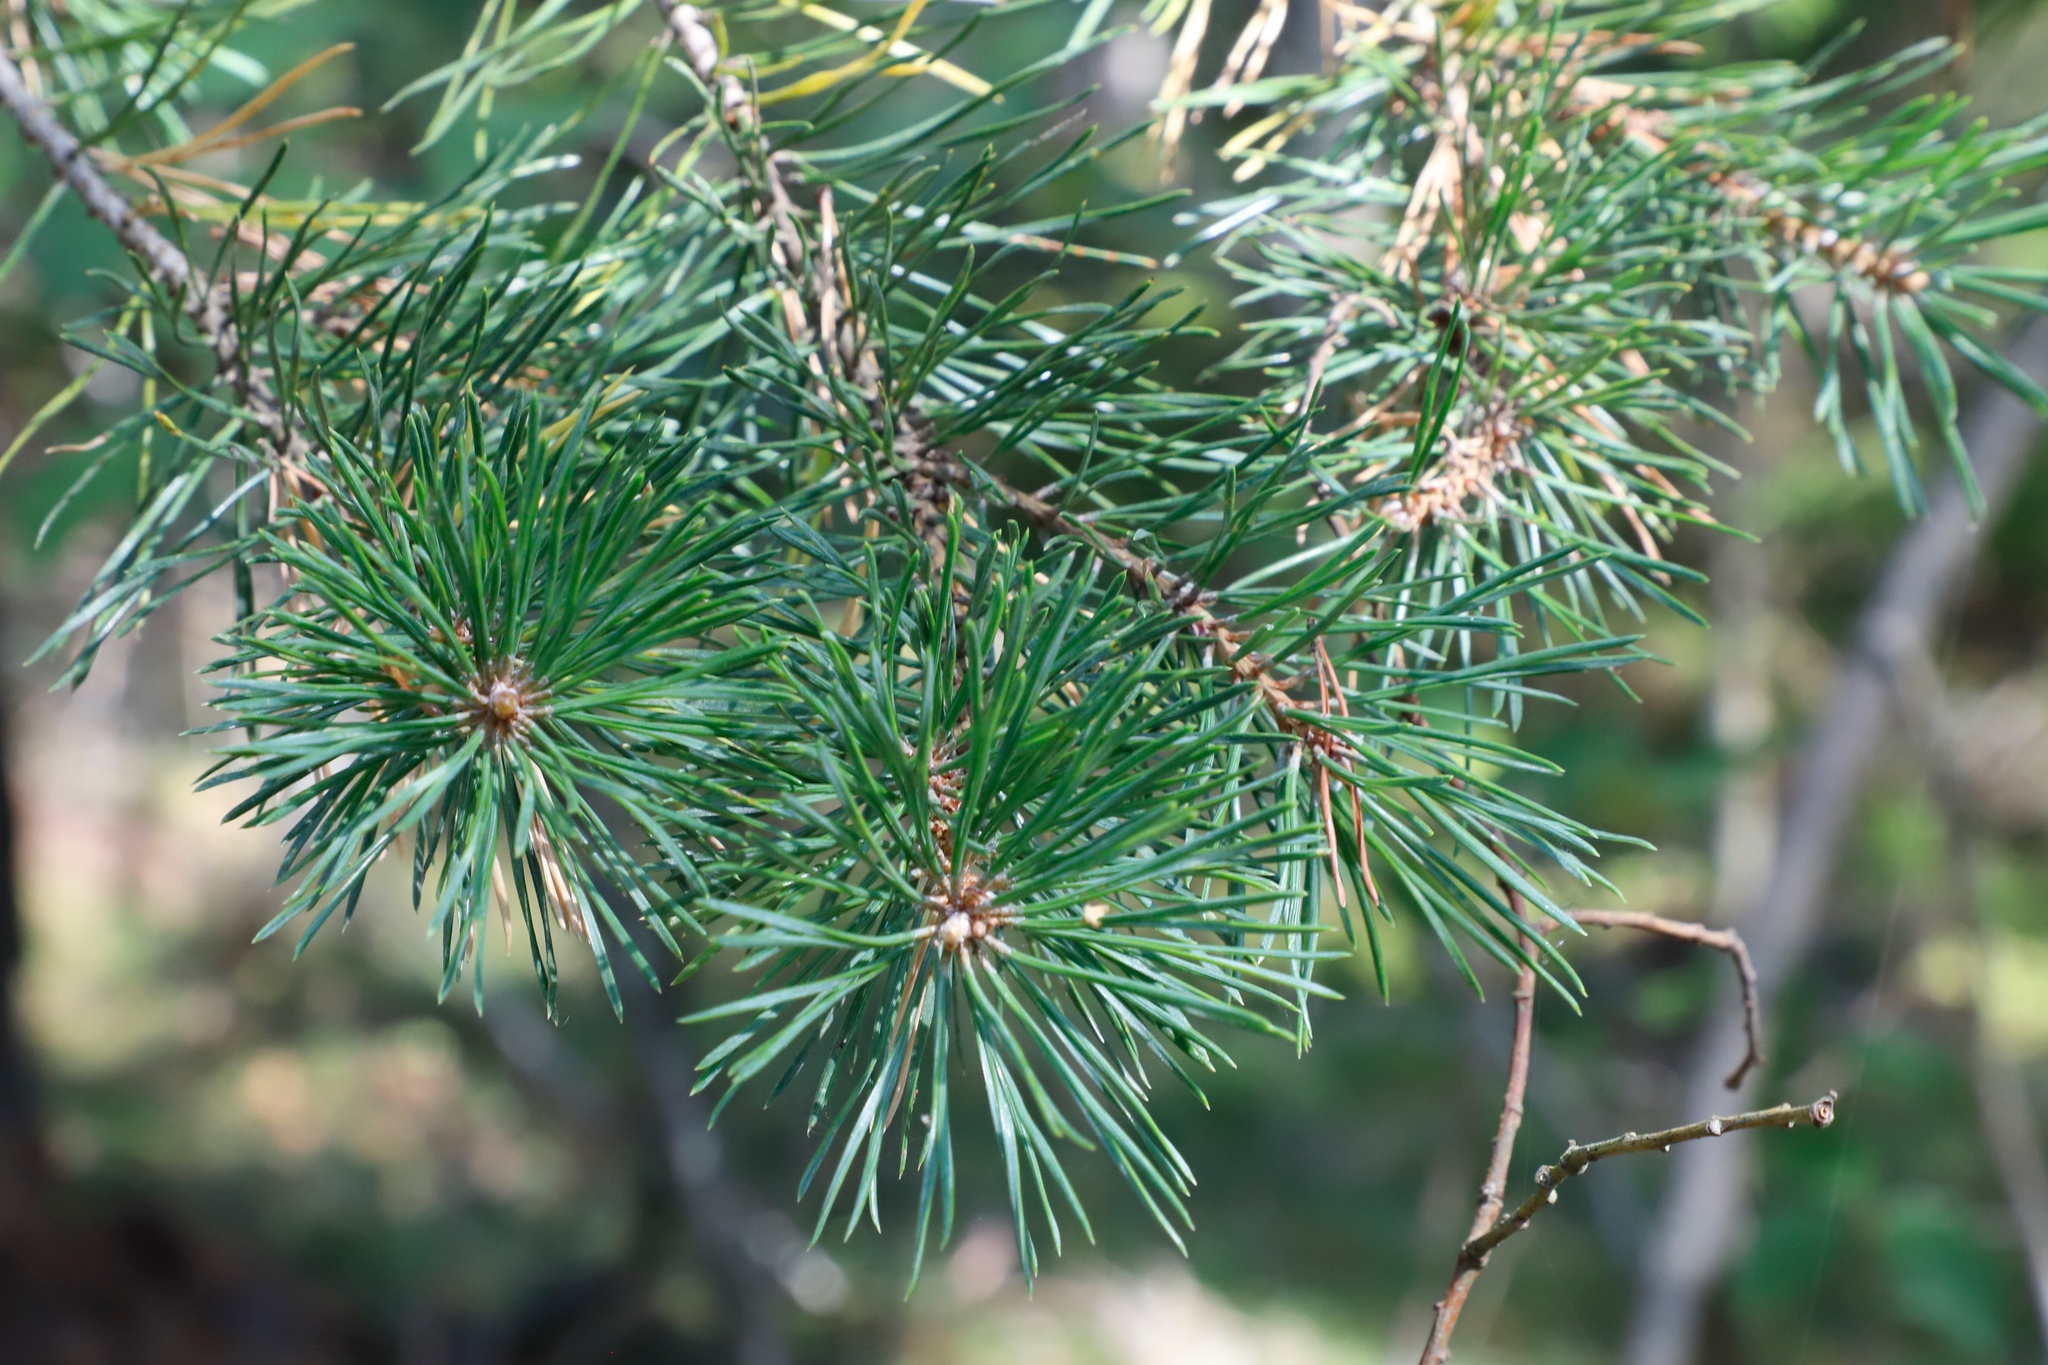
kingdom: Plantae
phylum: Tracheophyta
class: Pinopsida
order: Pinales
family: Pinaceae
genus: Pinus
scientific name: Pinus sylvestris
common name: Scots pine
